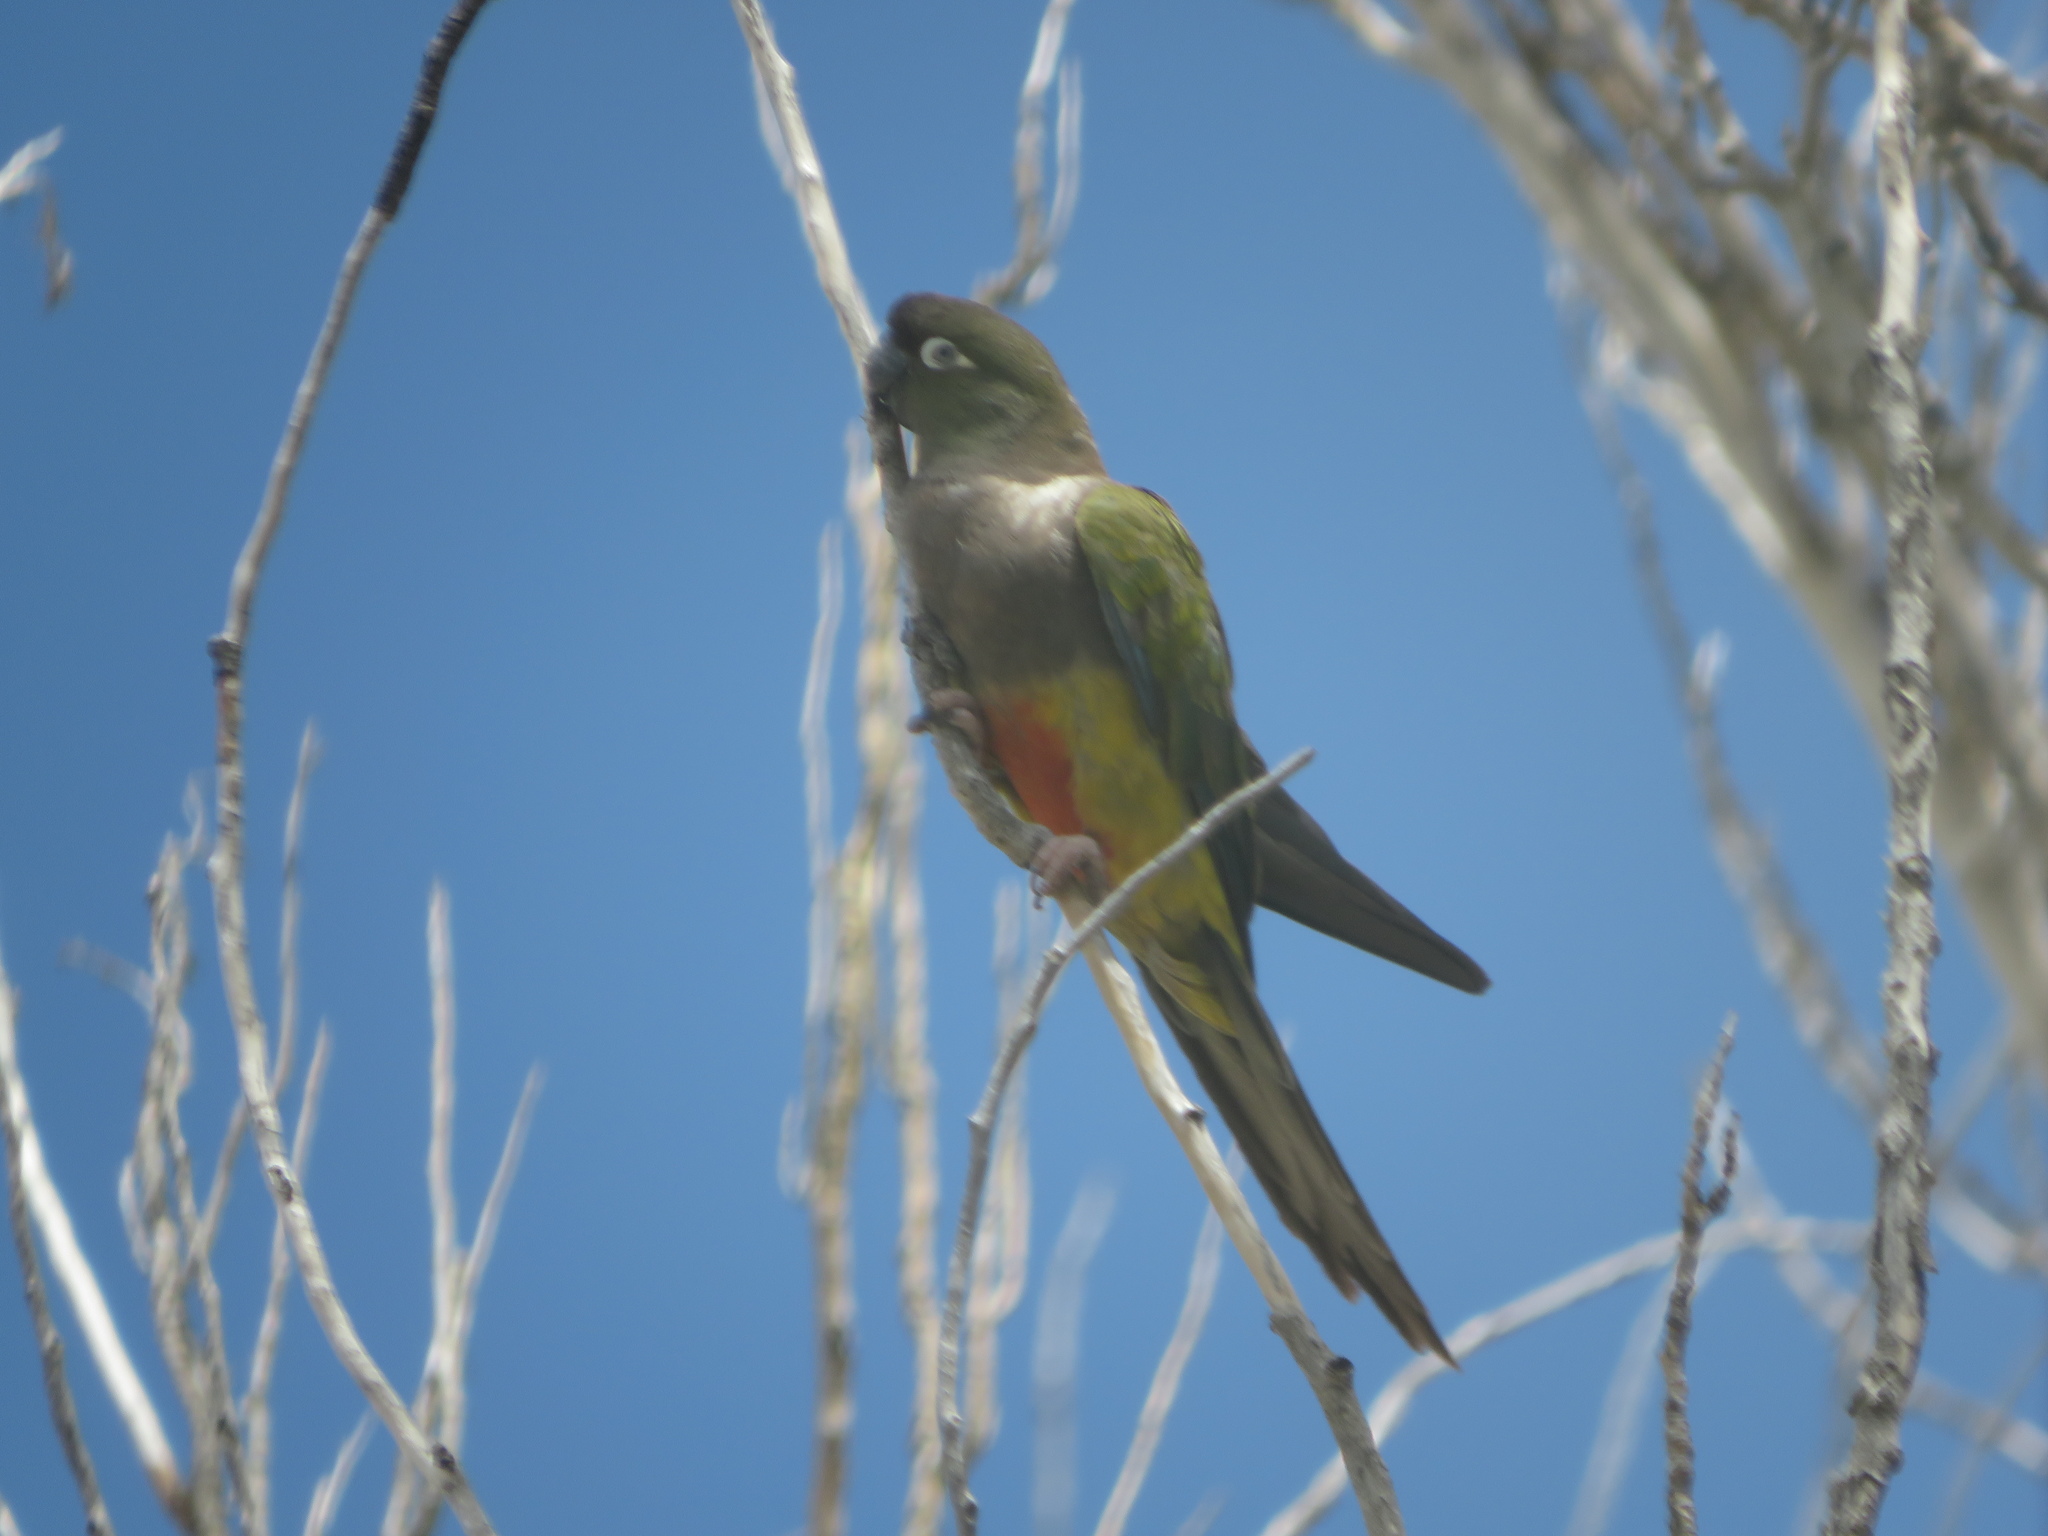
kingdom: Animalia
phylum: Chordata
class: Aves
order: Psittaciformes
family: Psittacidae
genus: Cyanoliseus
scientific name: Cyanoliseus patagonus
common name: Burrowing parrot
